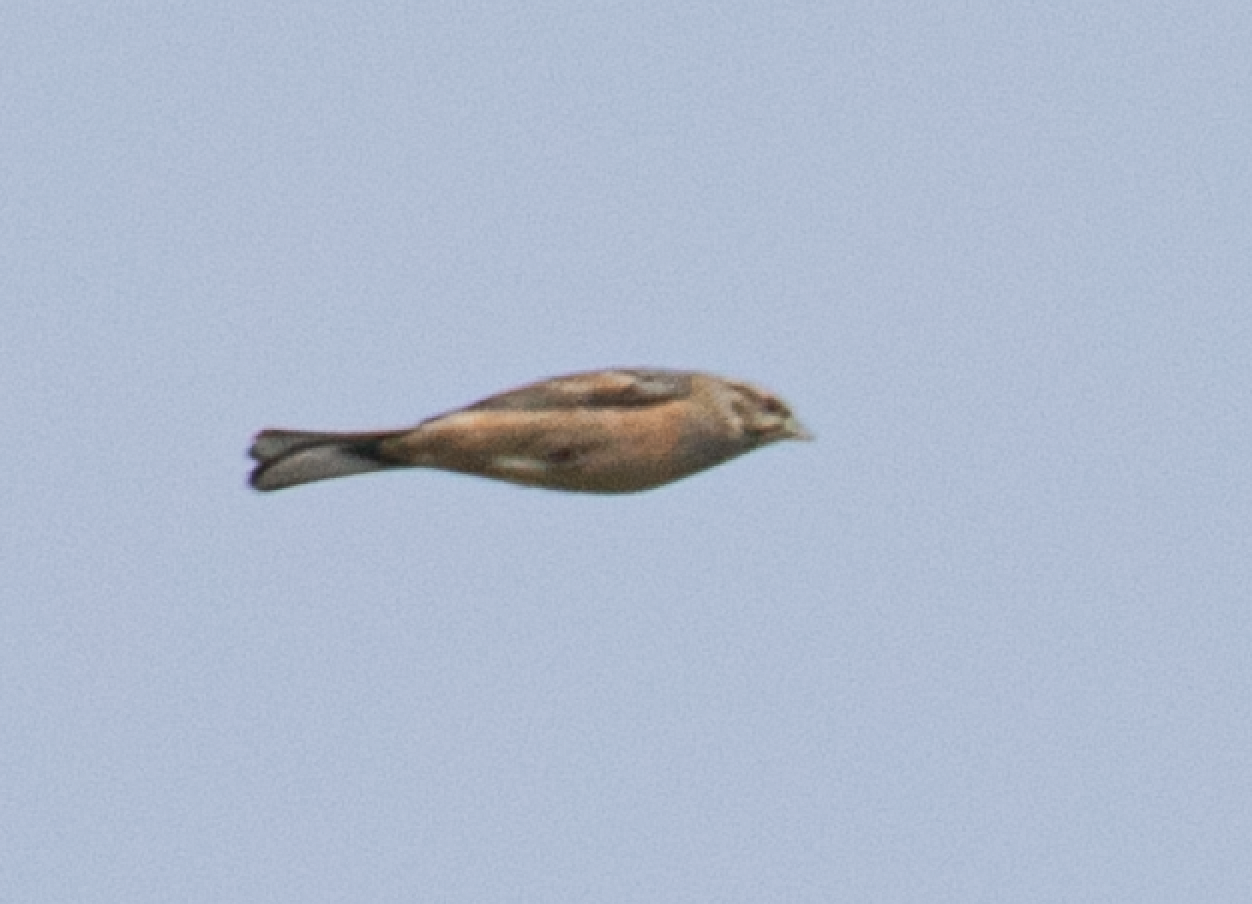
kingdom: Animalia
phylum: Chordata
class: Aves
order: Passeriformes
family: Emberizidae
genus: Emberiza
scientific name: Emberiza cia
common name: Rock bunting
